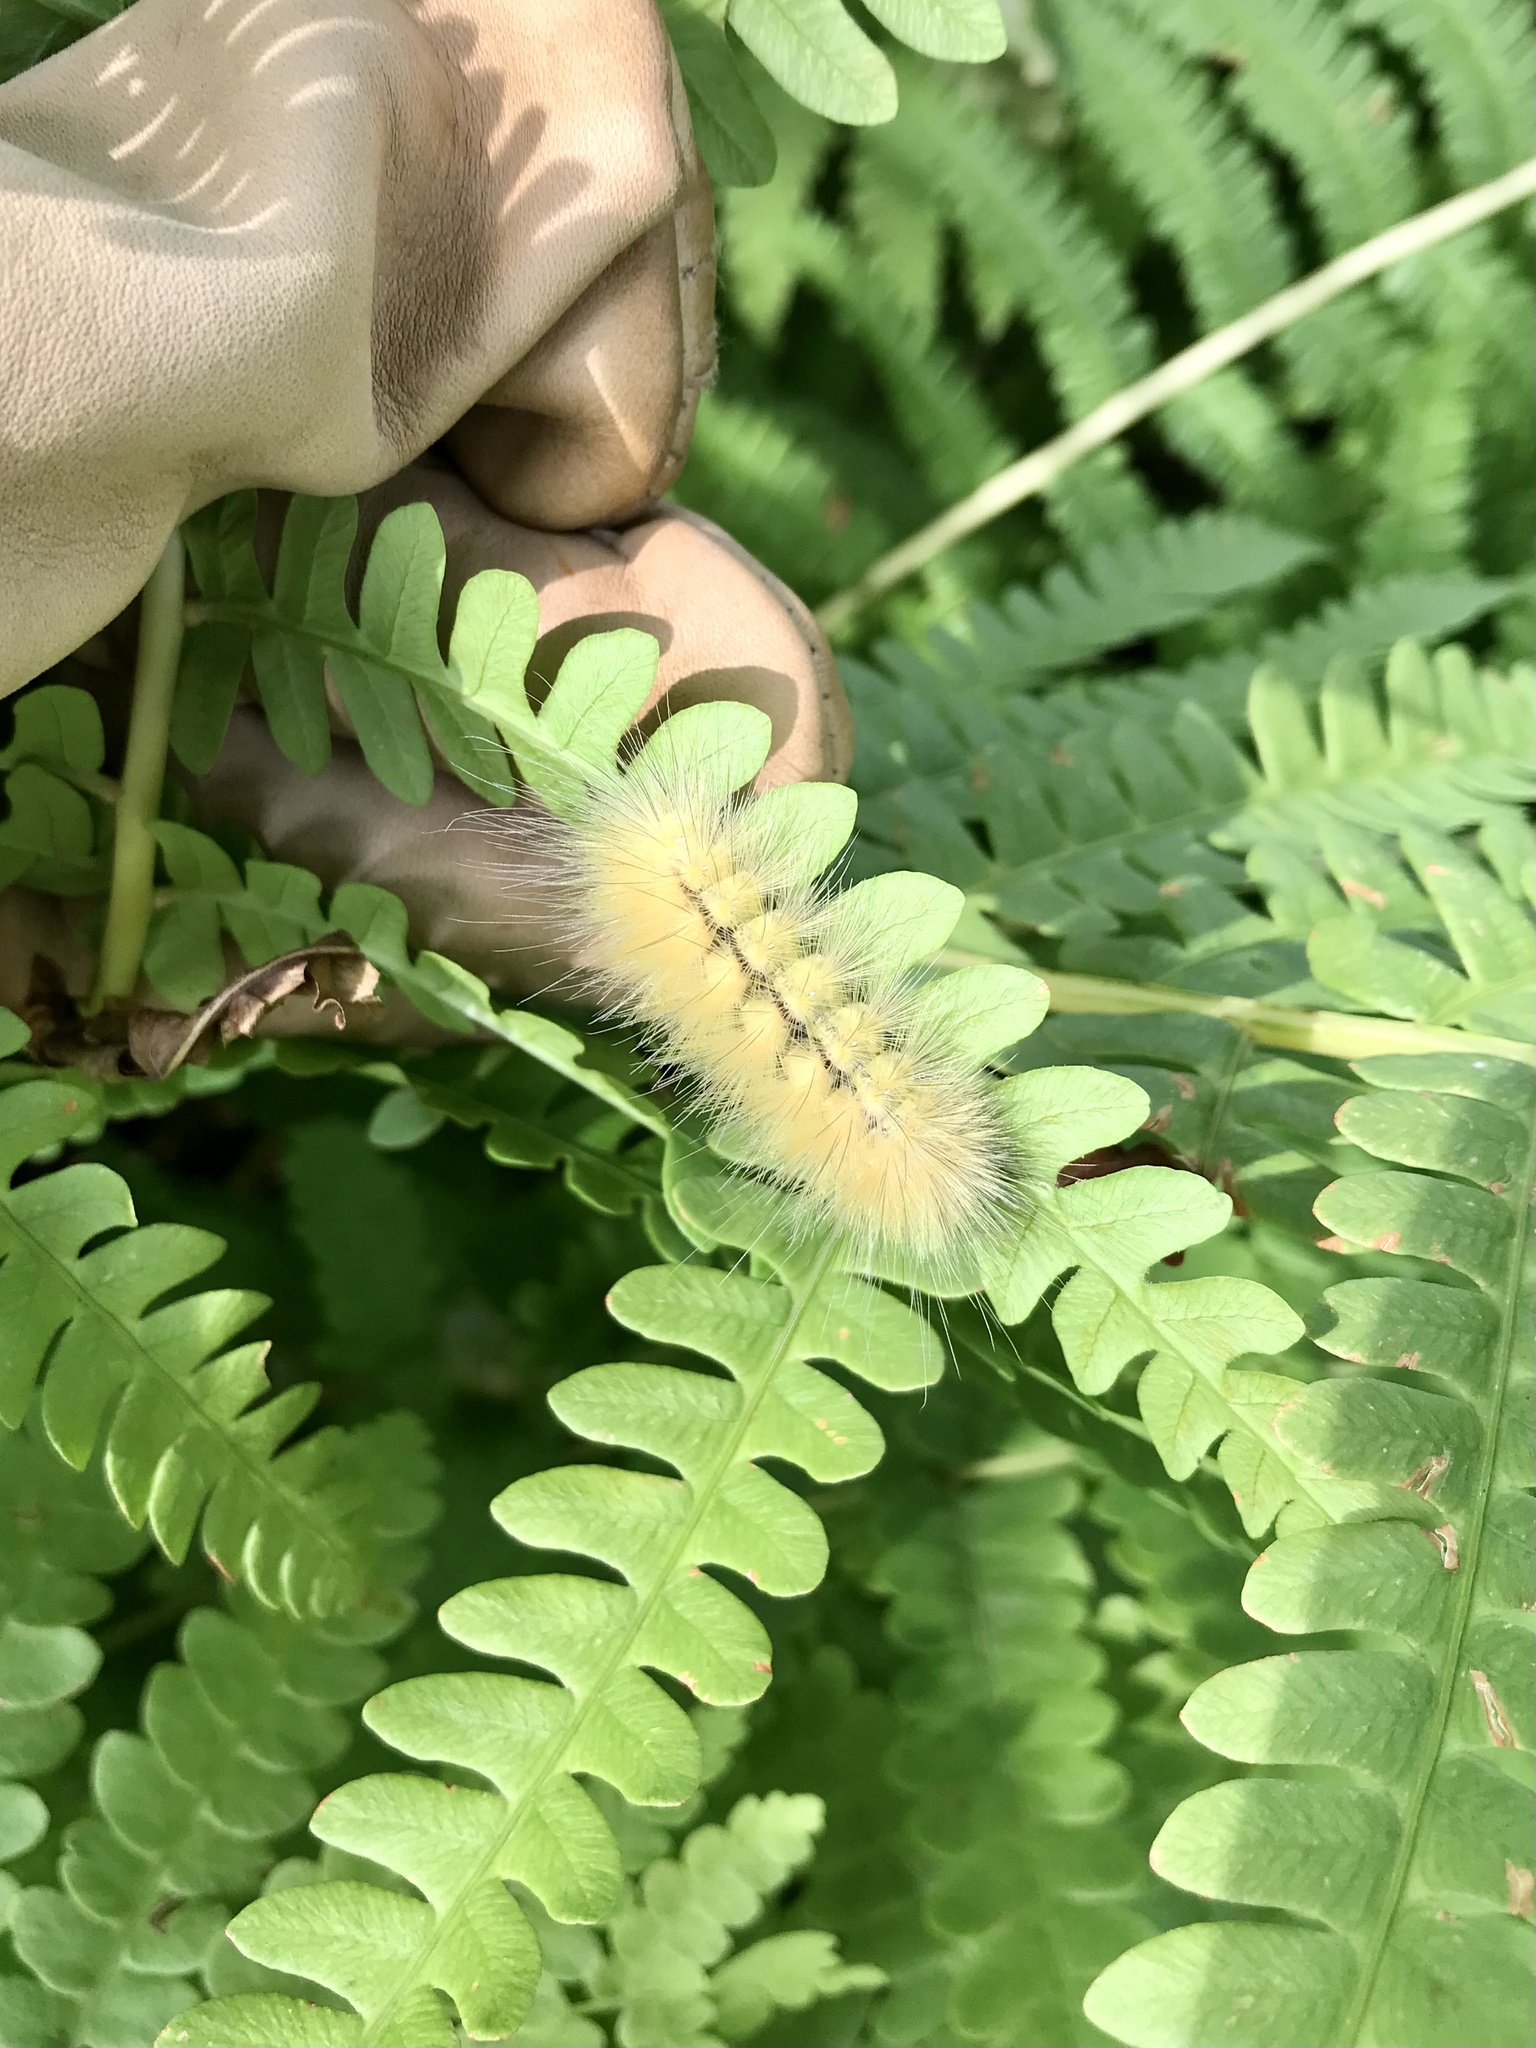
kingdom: Animalia
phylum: Arthropoda
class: Insecta
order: Lepidoptera
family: Erebidae
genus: Spilosoma
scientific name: Spilosoma virginica
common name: Virginia tiger moth
